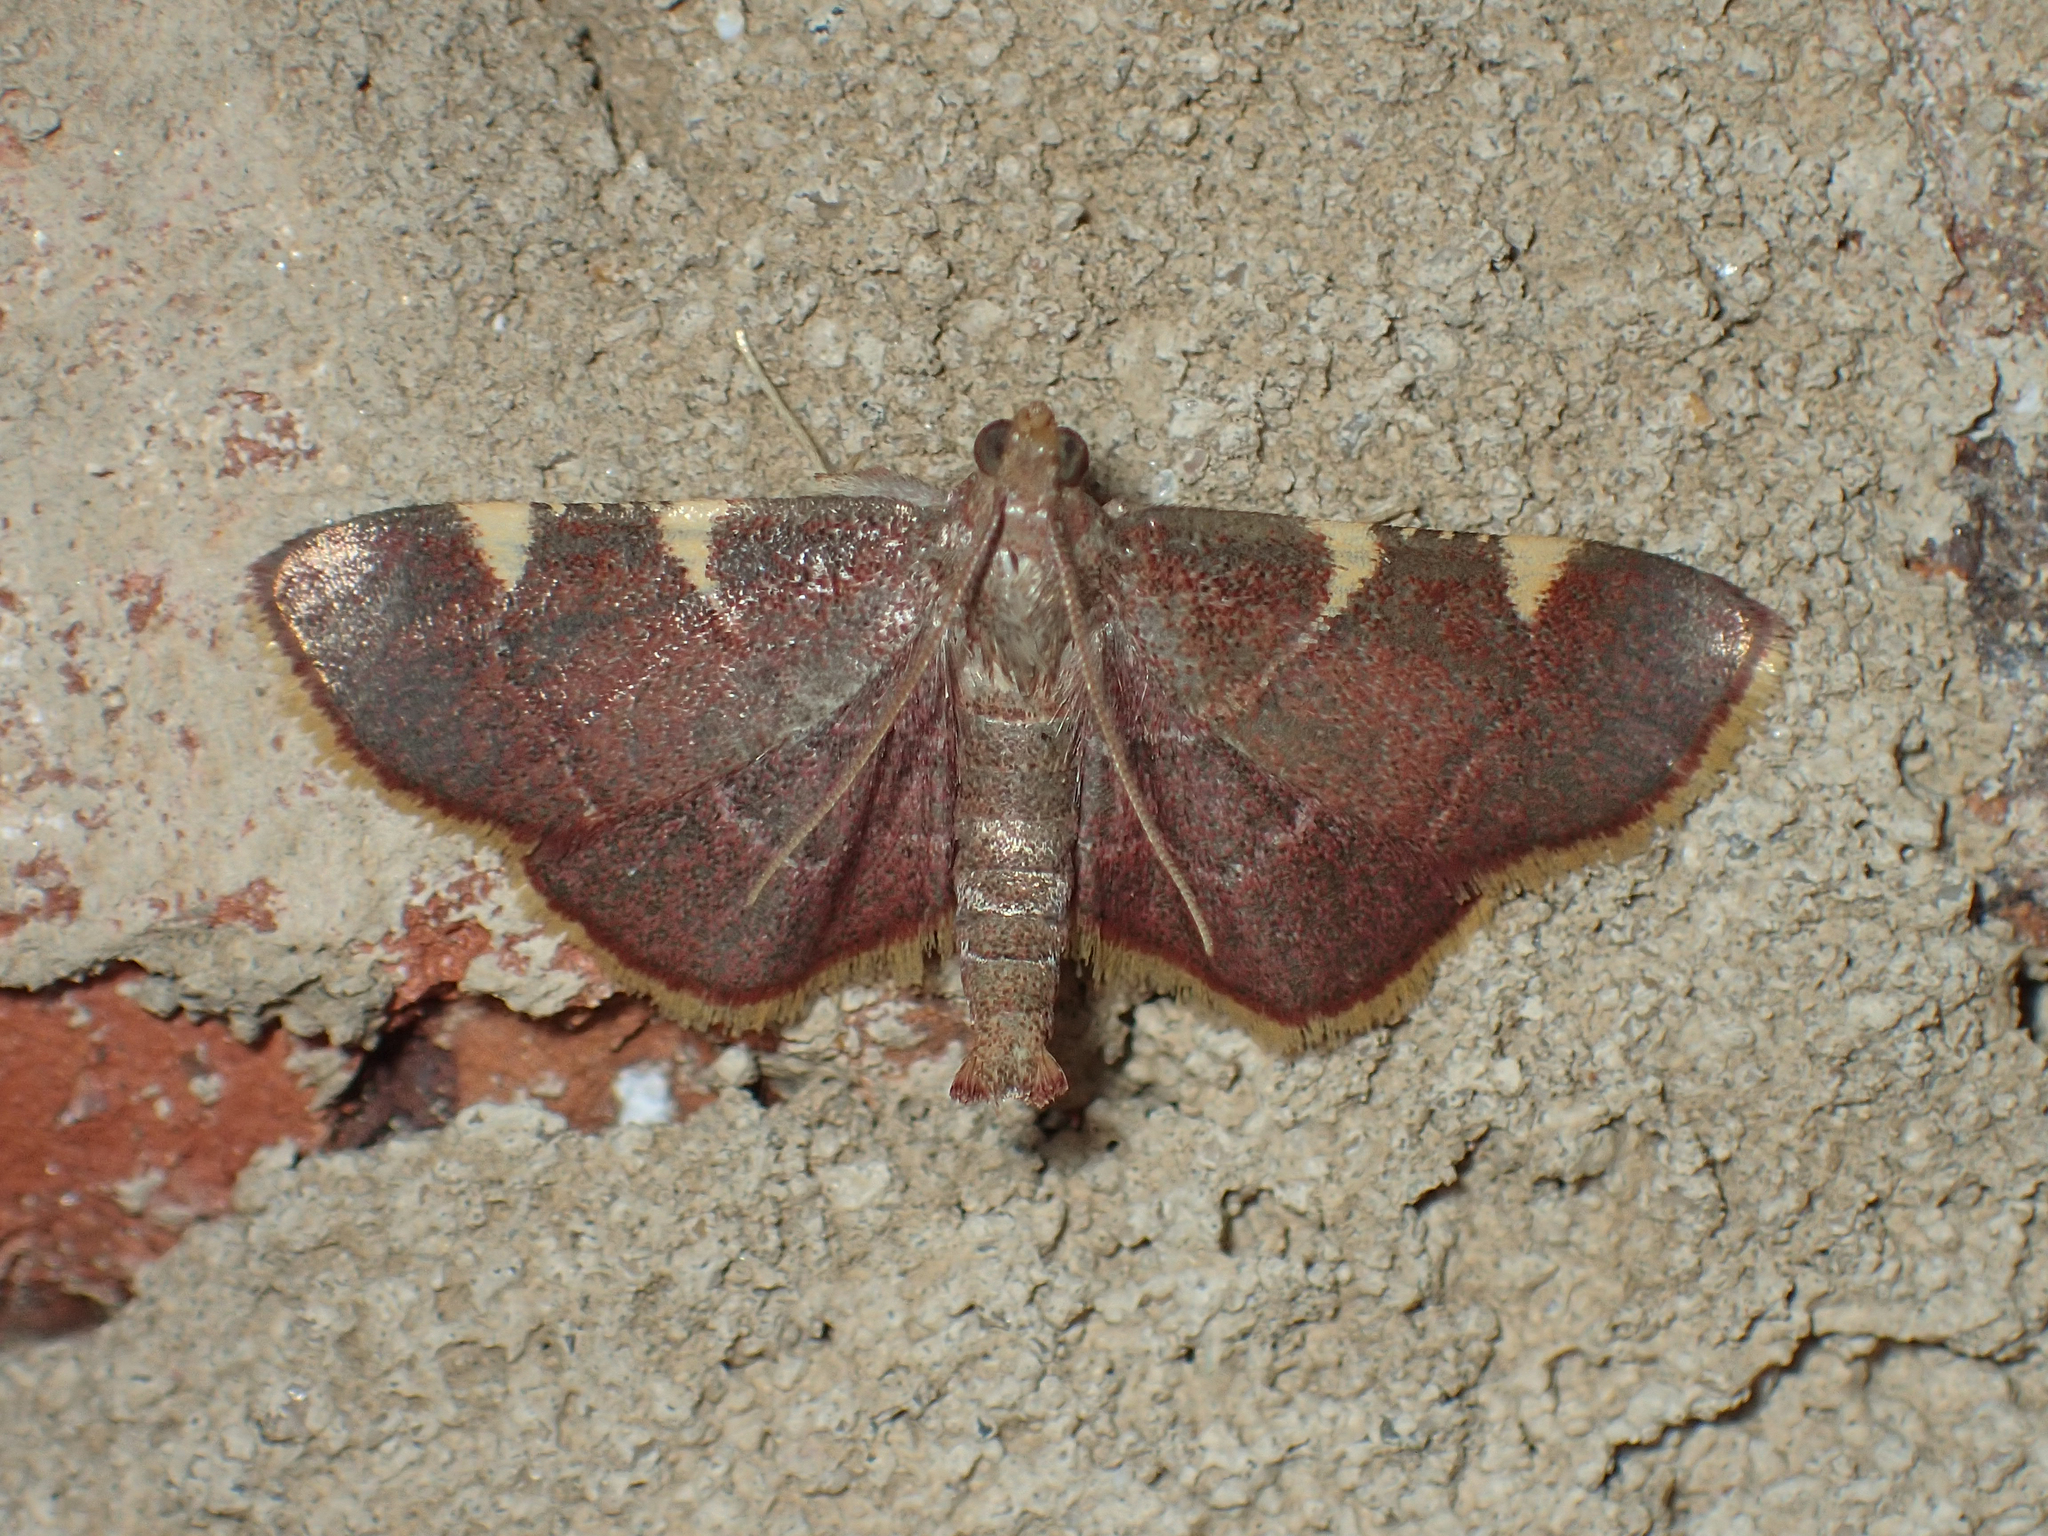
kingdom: Animalia
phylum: Arthropoda
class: Insecta
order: Lepidoptera
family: Pyralidae
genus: Hypsopygia
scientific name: Hypsopygia olinalis
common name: Yellow-fringed dolichomia moth
